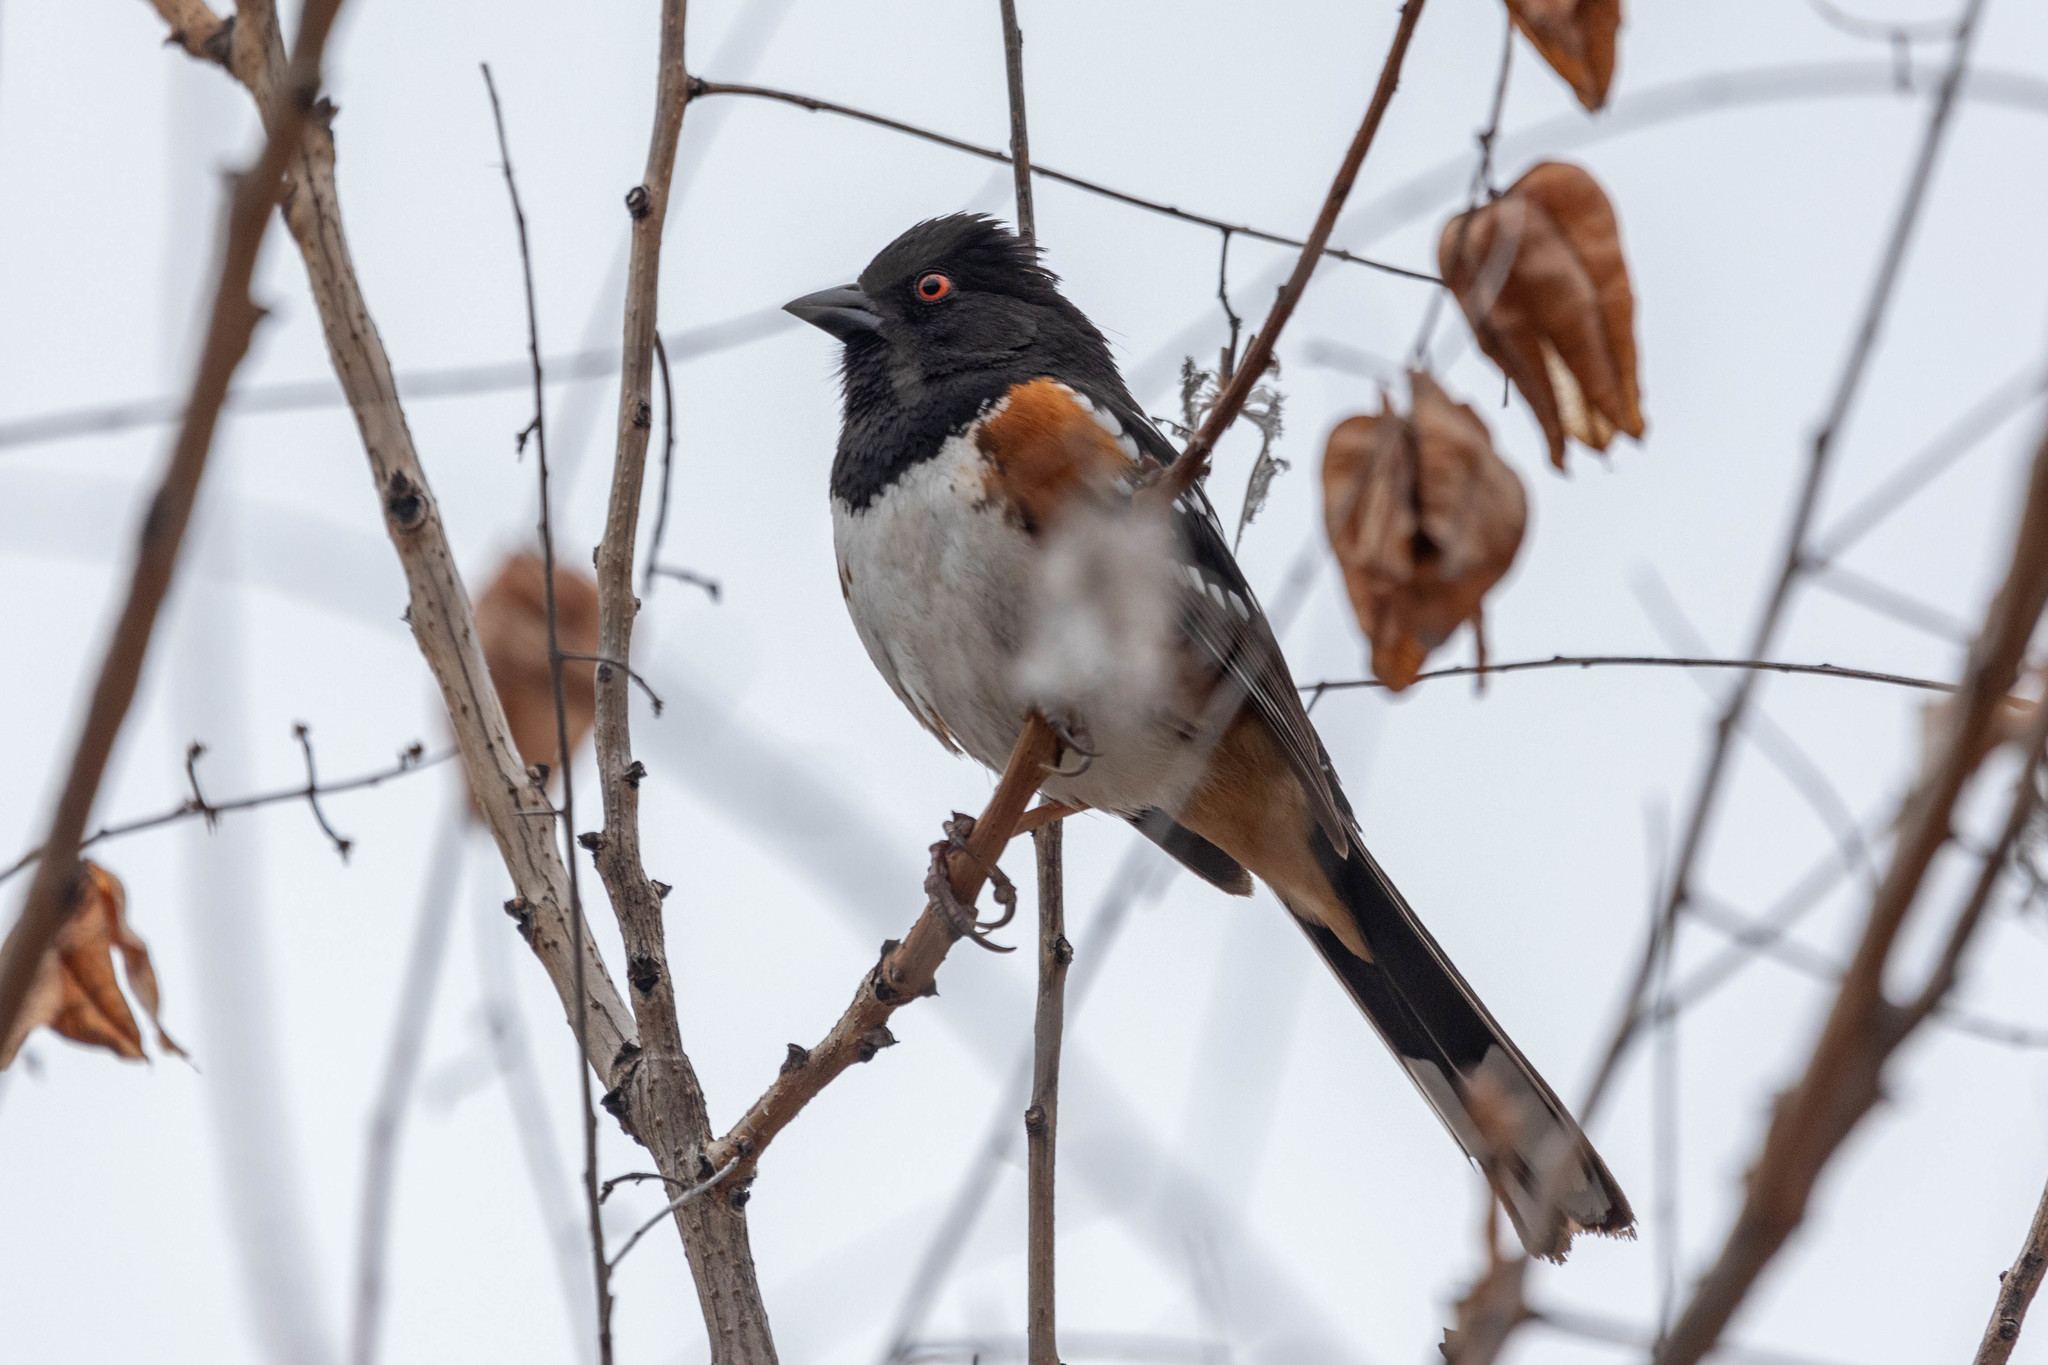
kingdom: Animalia
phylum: Chordata
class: Aves
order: Passeriformes
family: Passerellidae
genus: Pipilo
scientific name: Pipilo maculatus
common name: Spotted towhee
